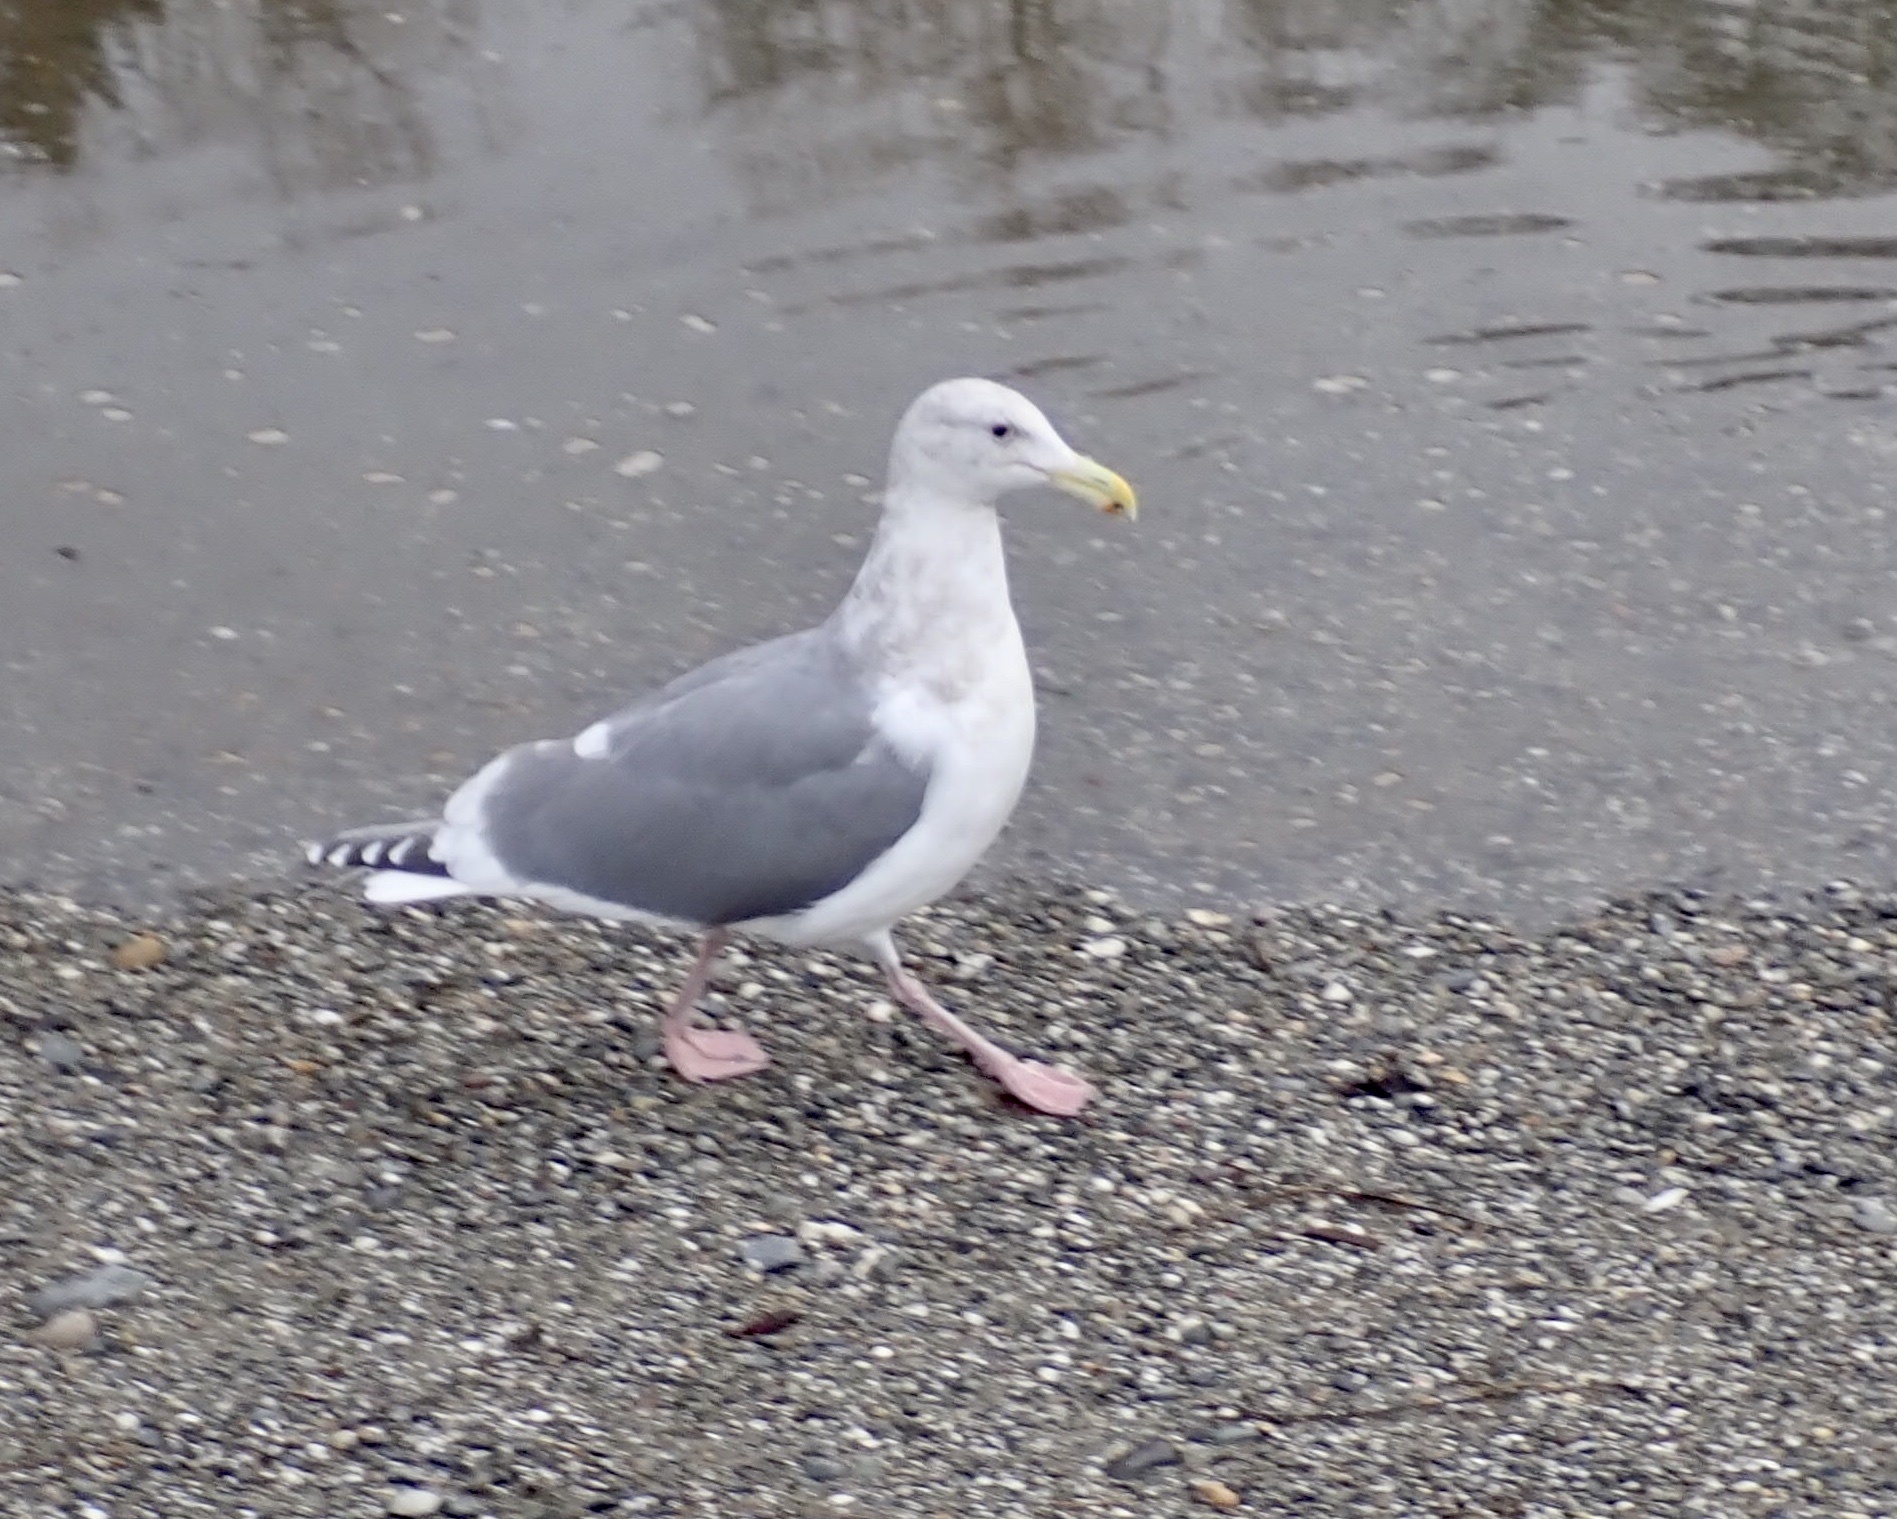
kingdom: Animalia
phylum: Chordata
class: Aves
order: Charadriiformes
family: Laridae
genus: Larus
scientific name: Larus
